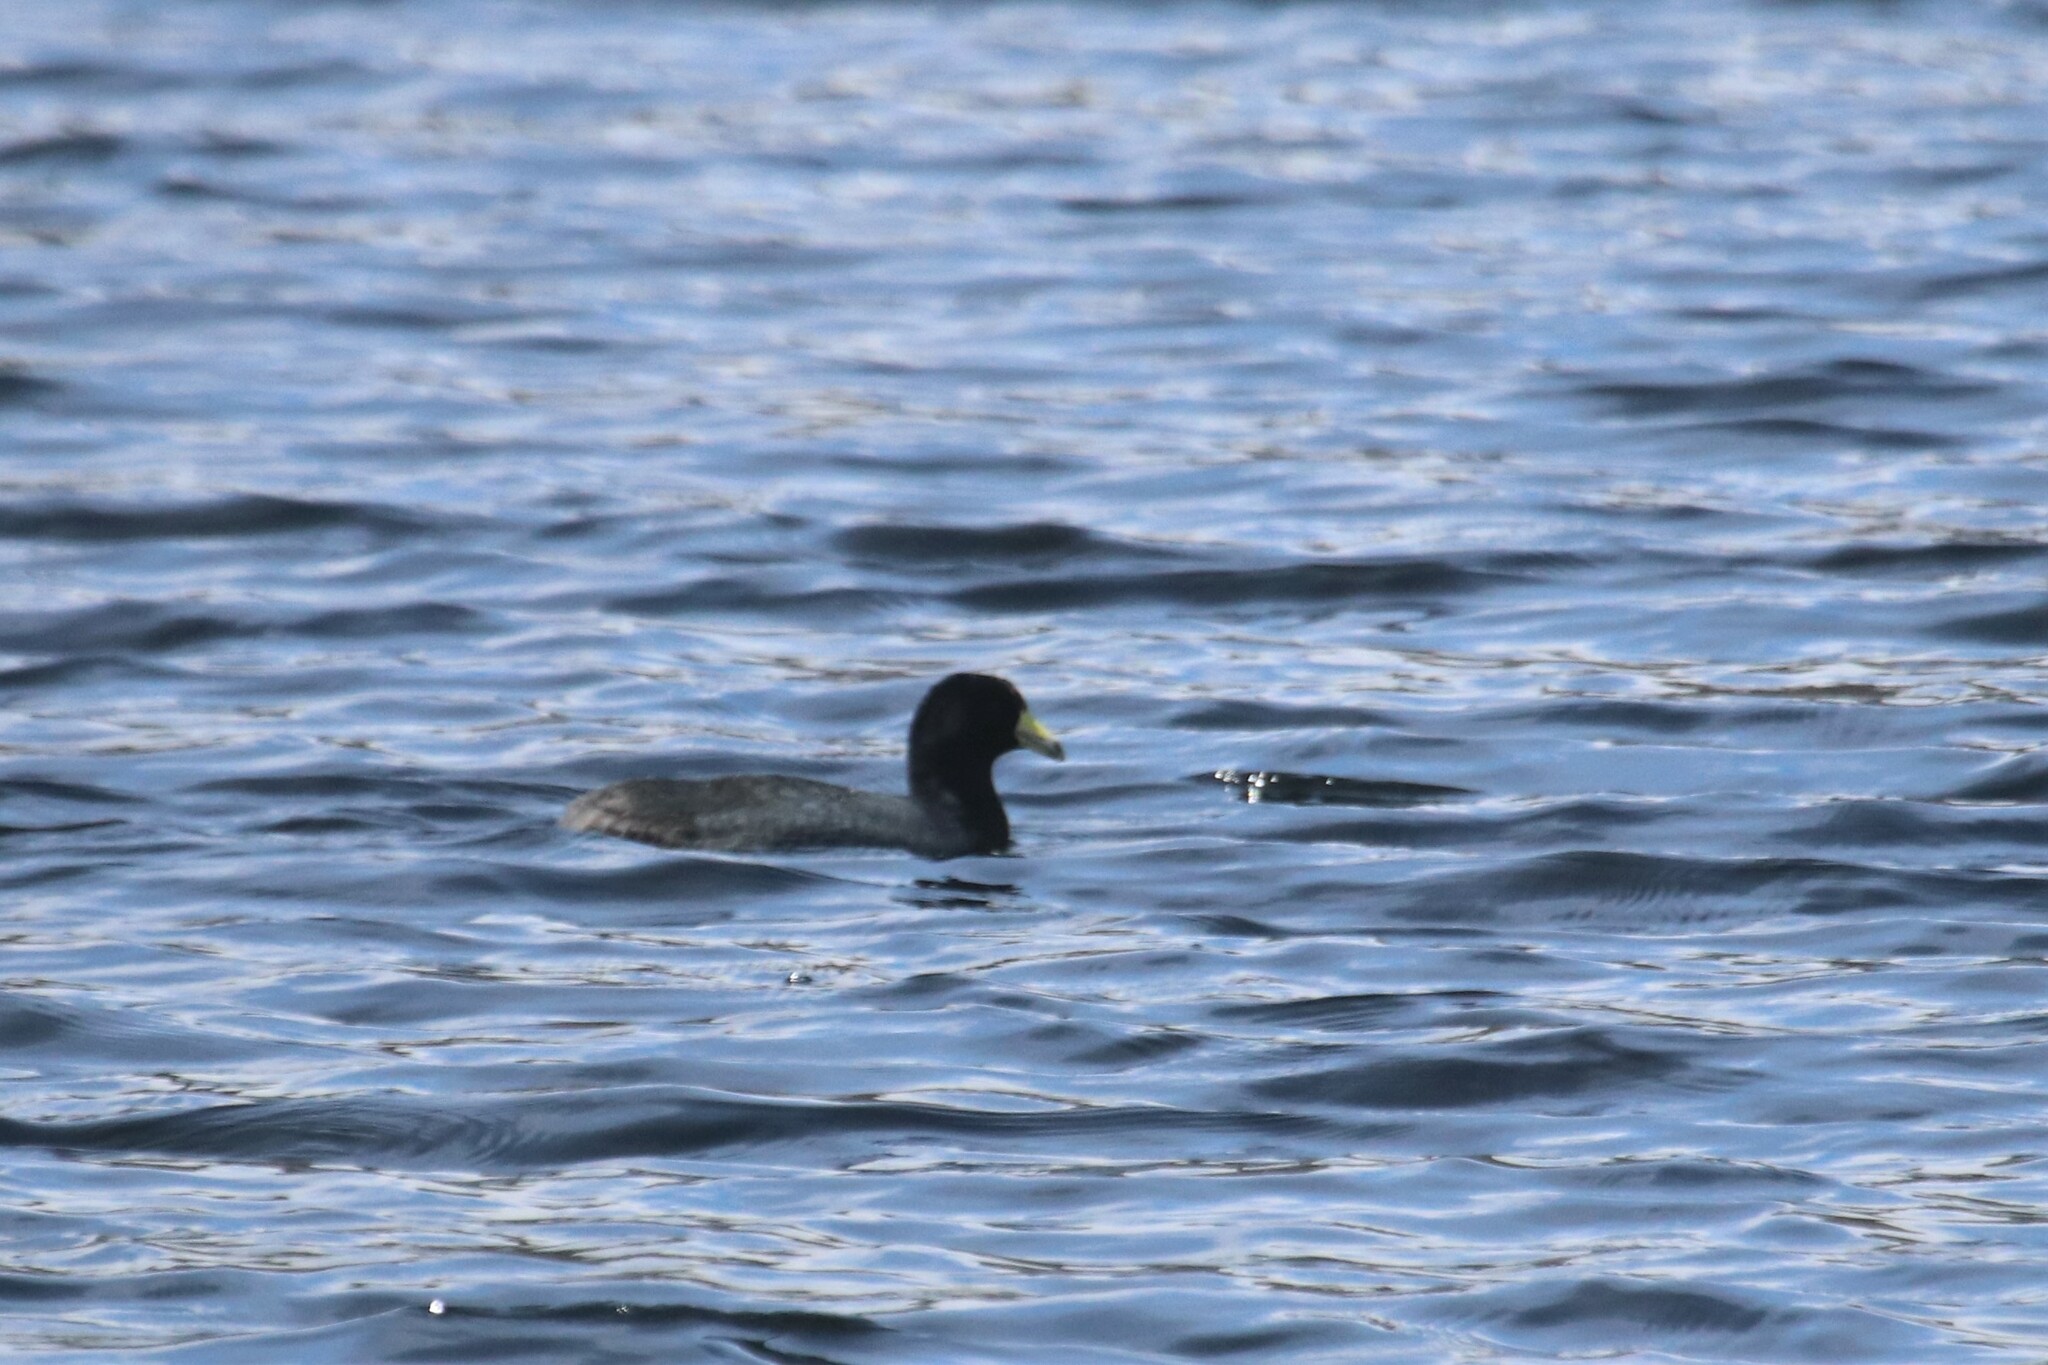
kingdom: Animalia
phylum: Chordata
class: Aves
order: Gruiformes
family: Rallidae
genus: Fulica
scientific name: Fulica americana
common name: American coot
